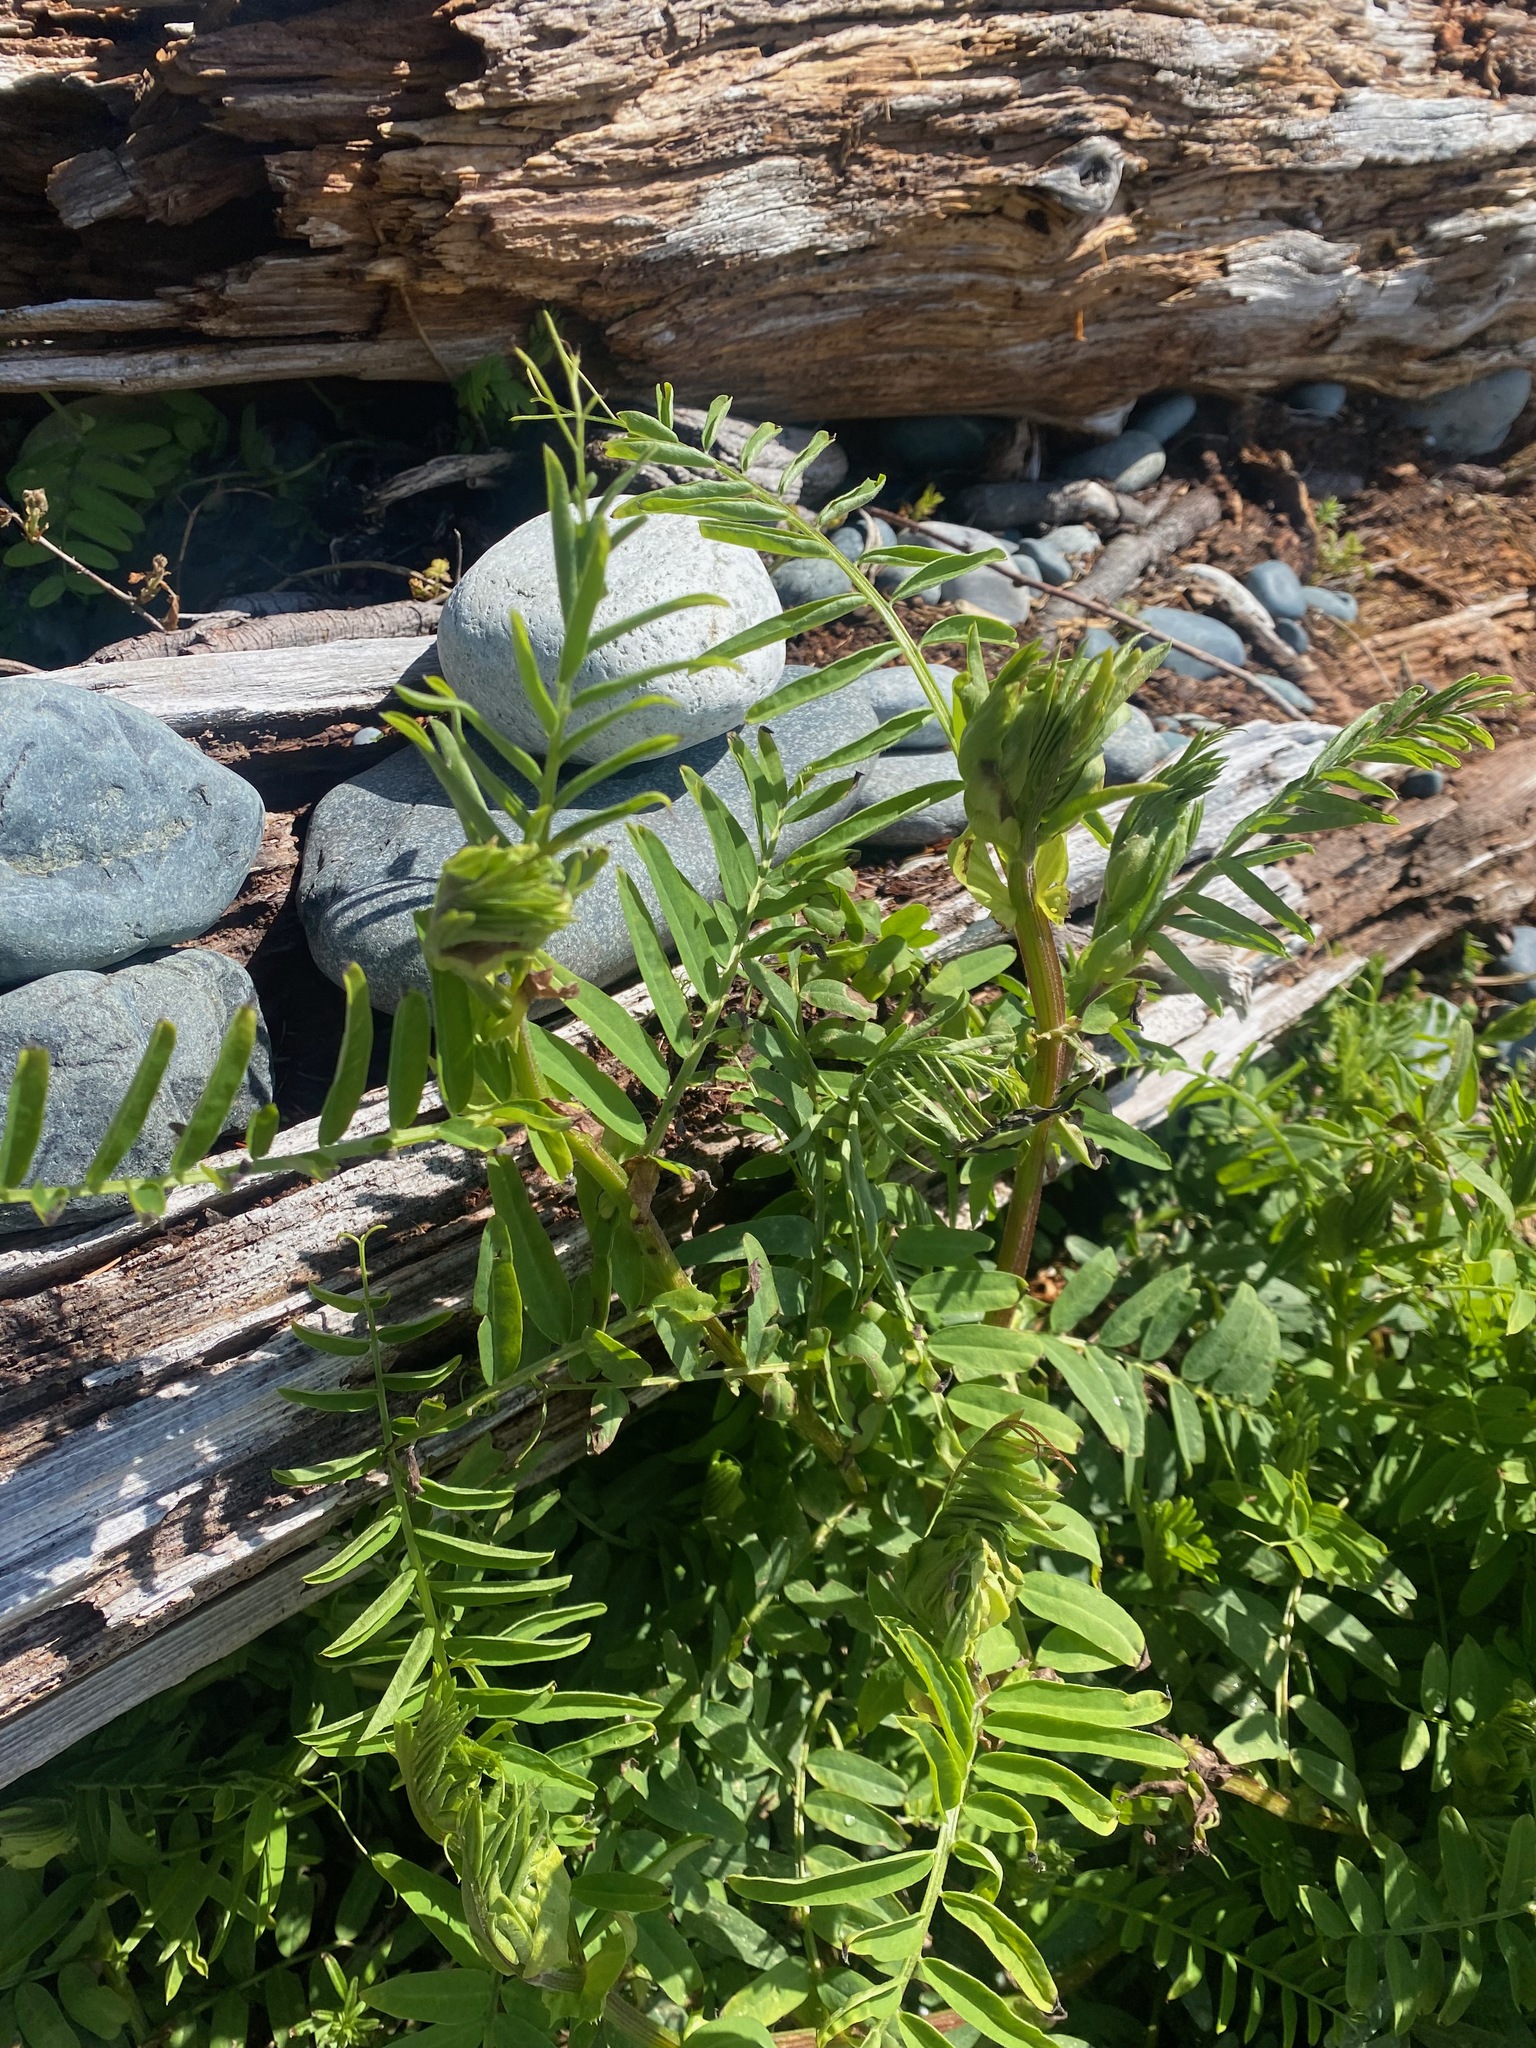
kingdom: Plantae
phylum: Tracheophyta
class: Magnoliopsida
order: Fabales
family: Fabaceae
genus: Vicia
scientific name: Vicia
